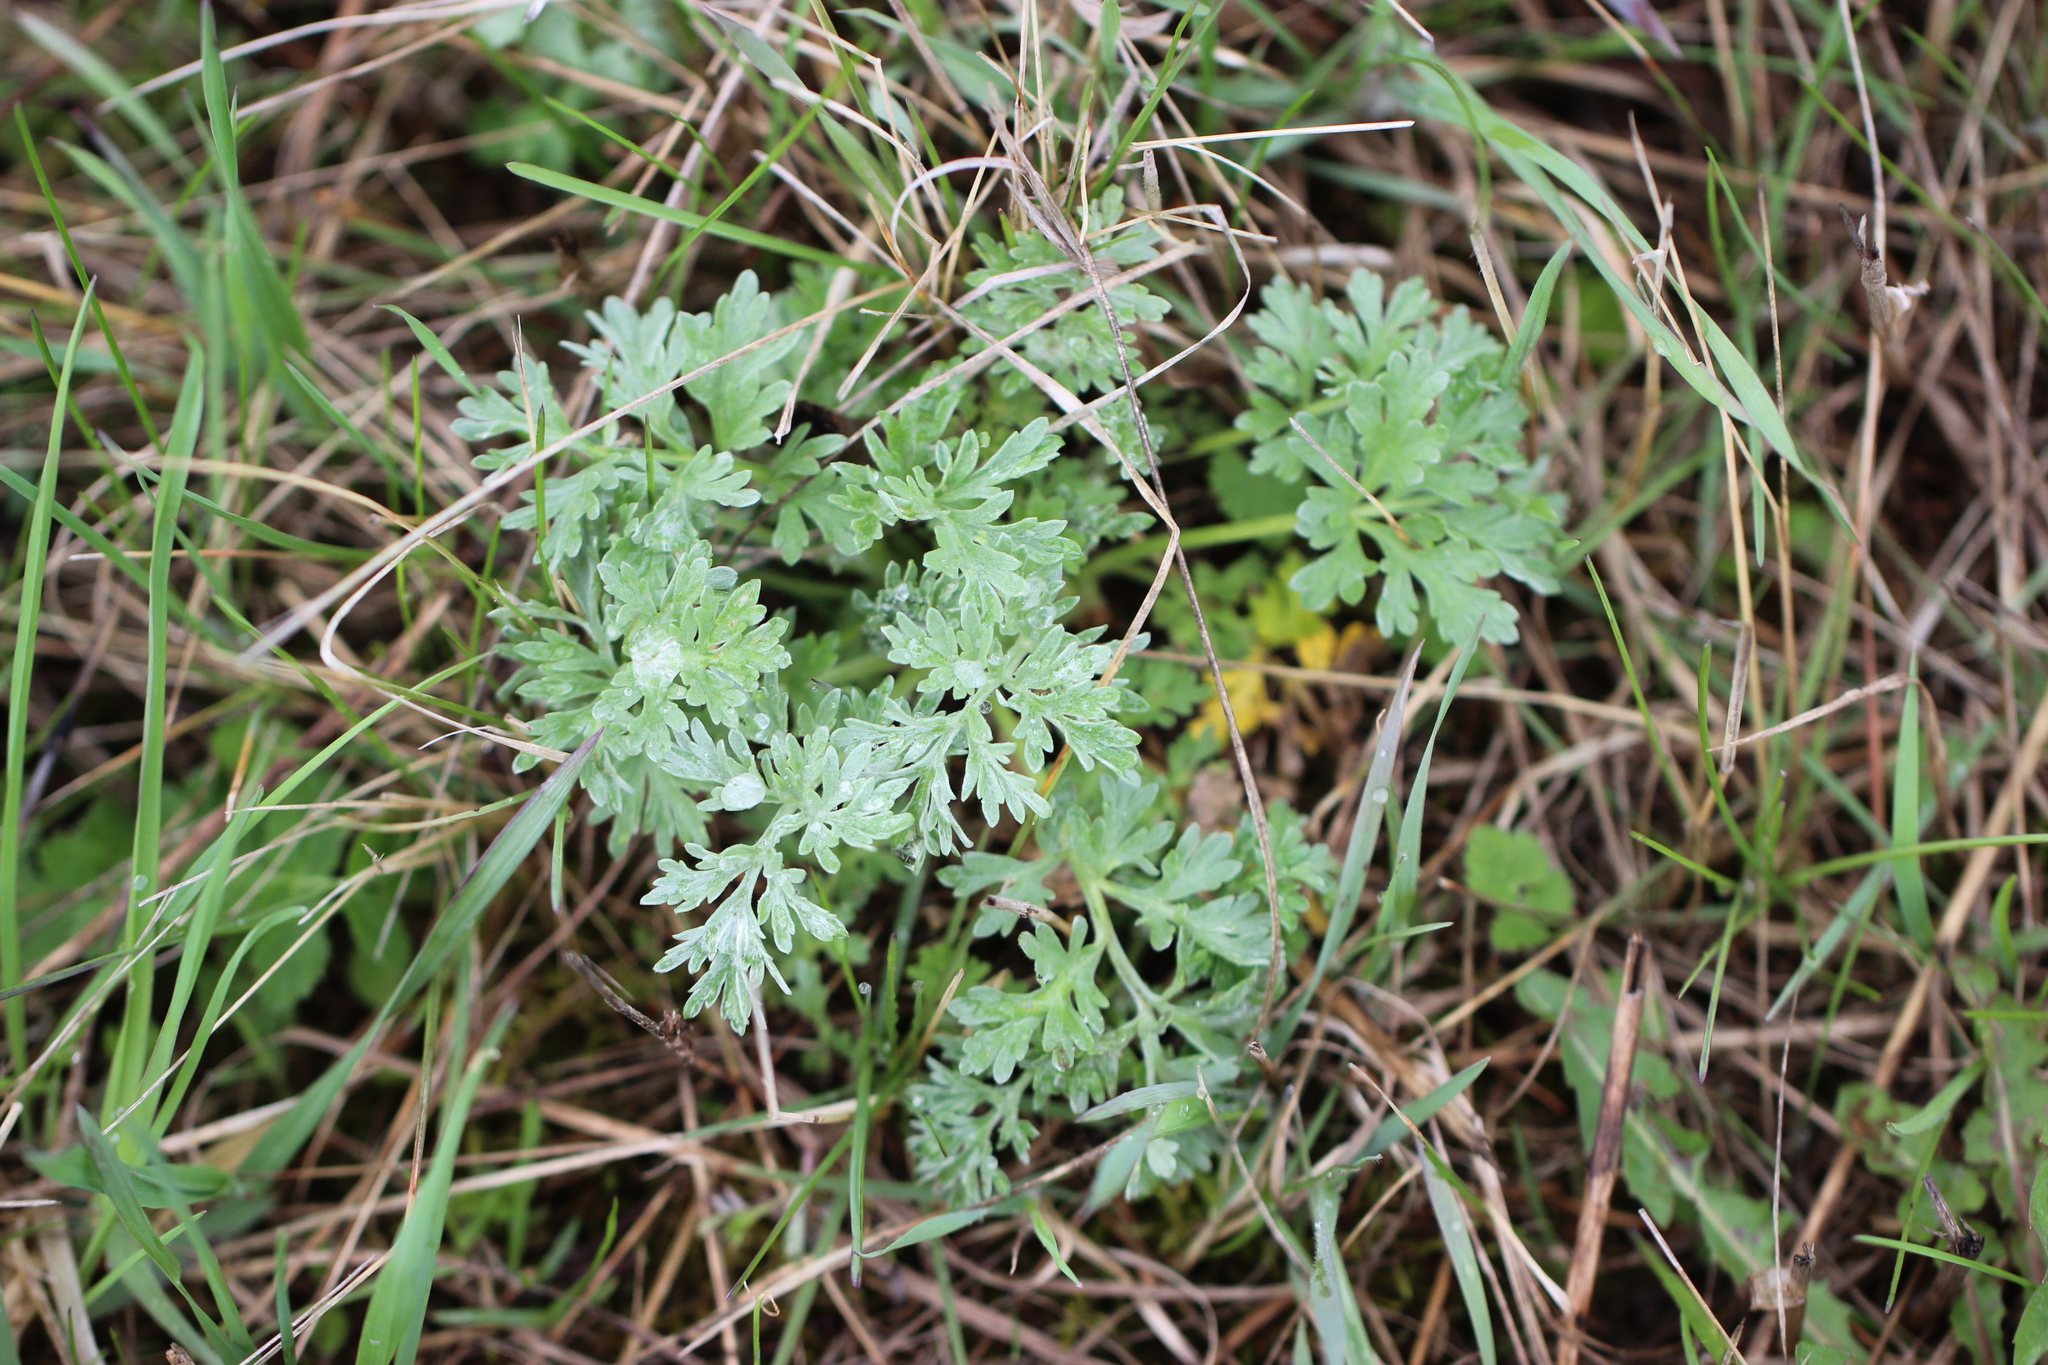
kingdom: Plantae
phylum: Tracheophyta
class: Magnoliopsida
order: Asterales
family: Asteraceae
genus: Artemisia
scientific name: Artemisia absinthium
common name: Wormwood
